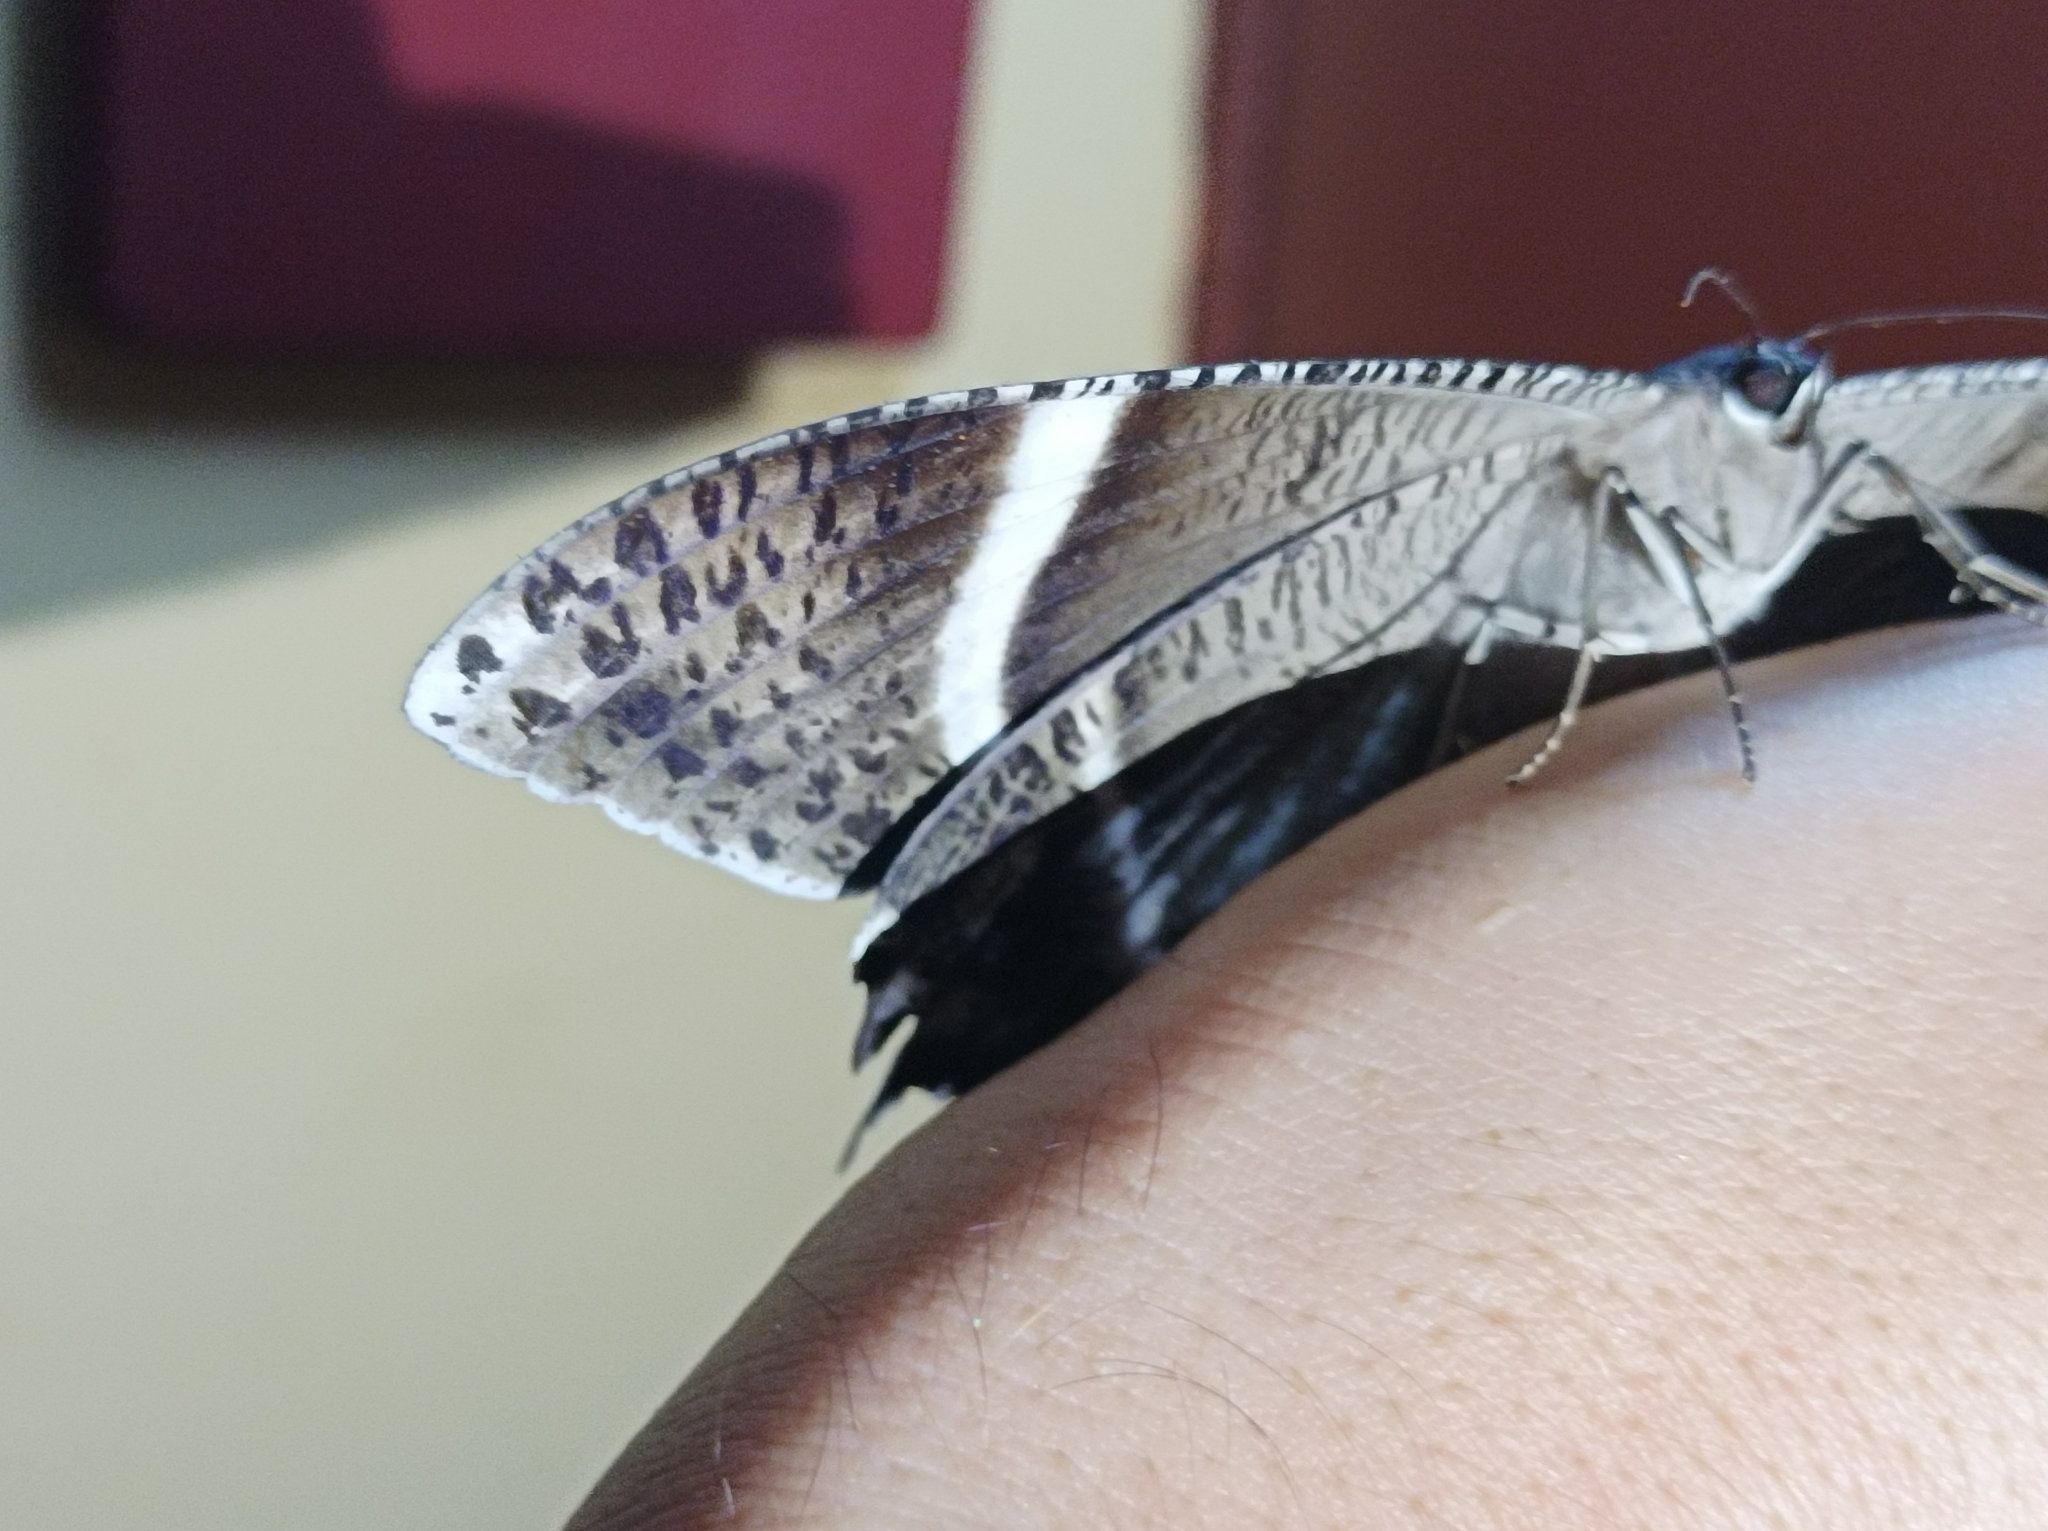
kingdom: Animalia
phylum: Arthropoda
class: Insecta
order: Lepidoptera
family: Uraniidae
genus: Lyssa
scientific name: Lyssa curvata
